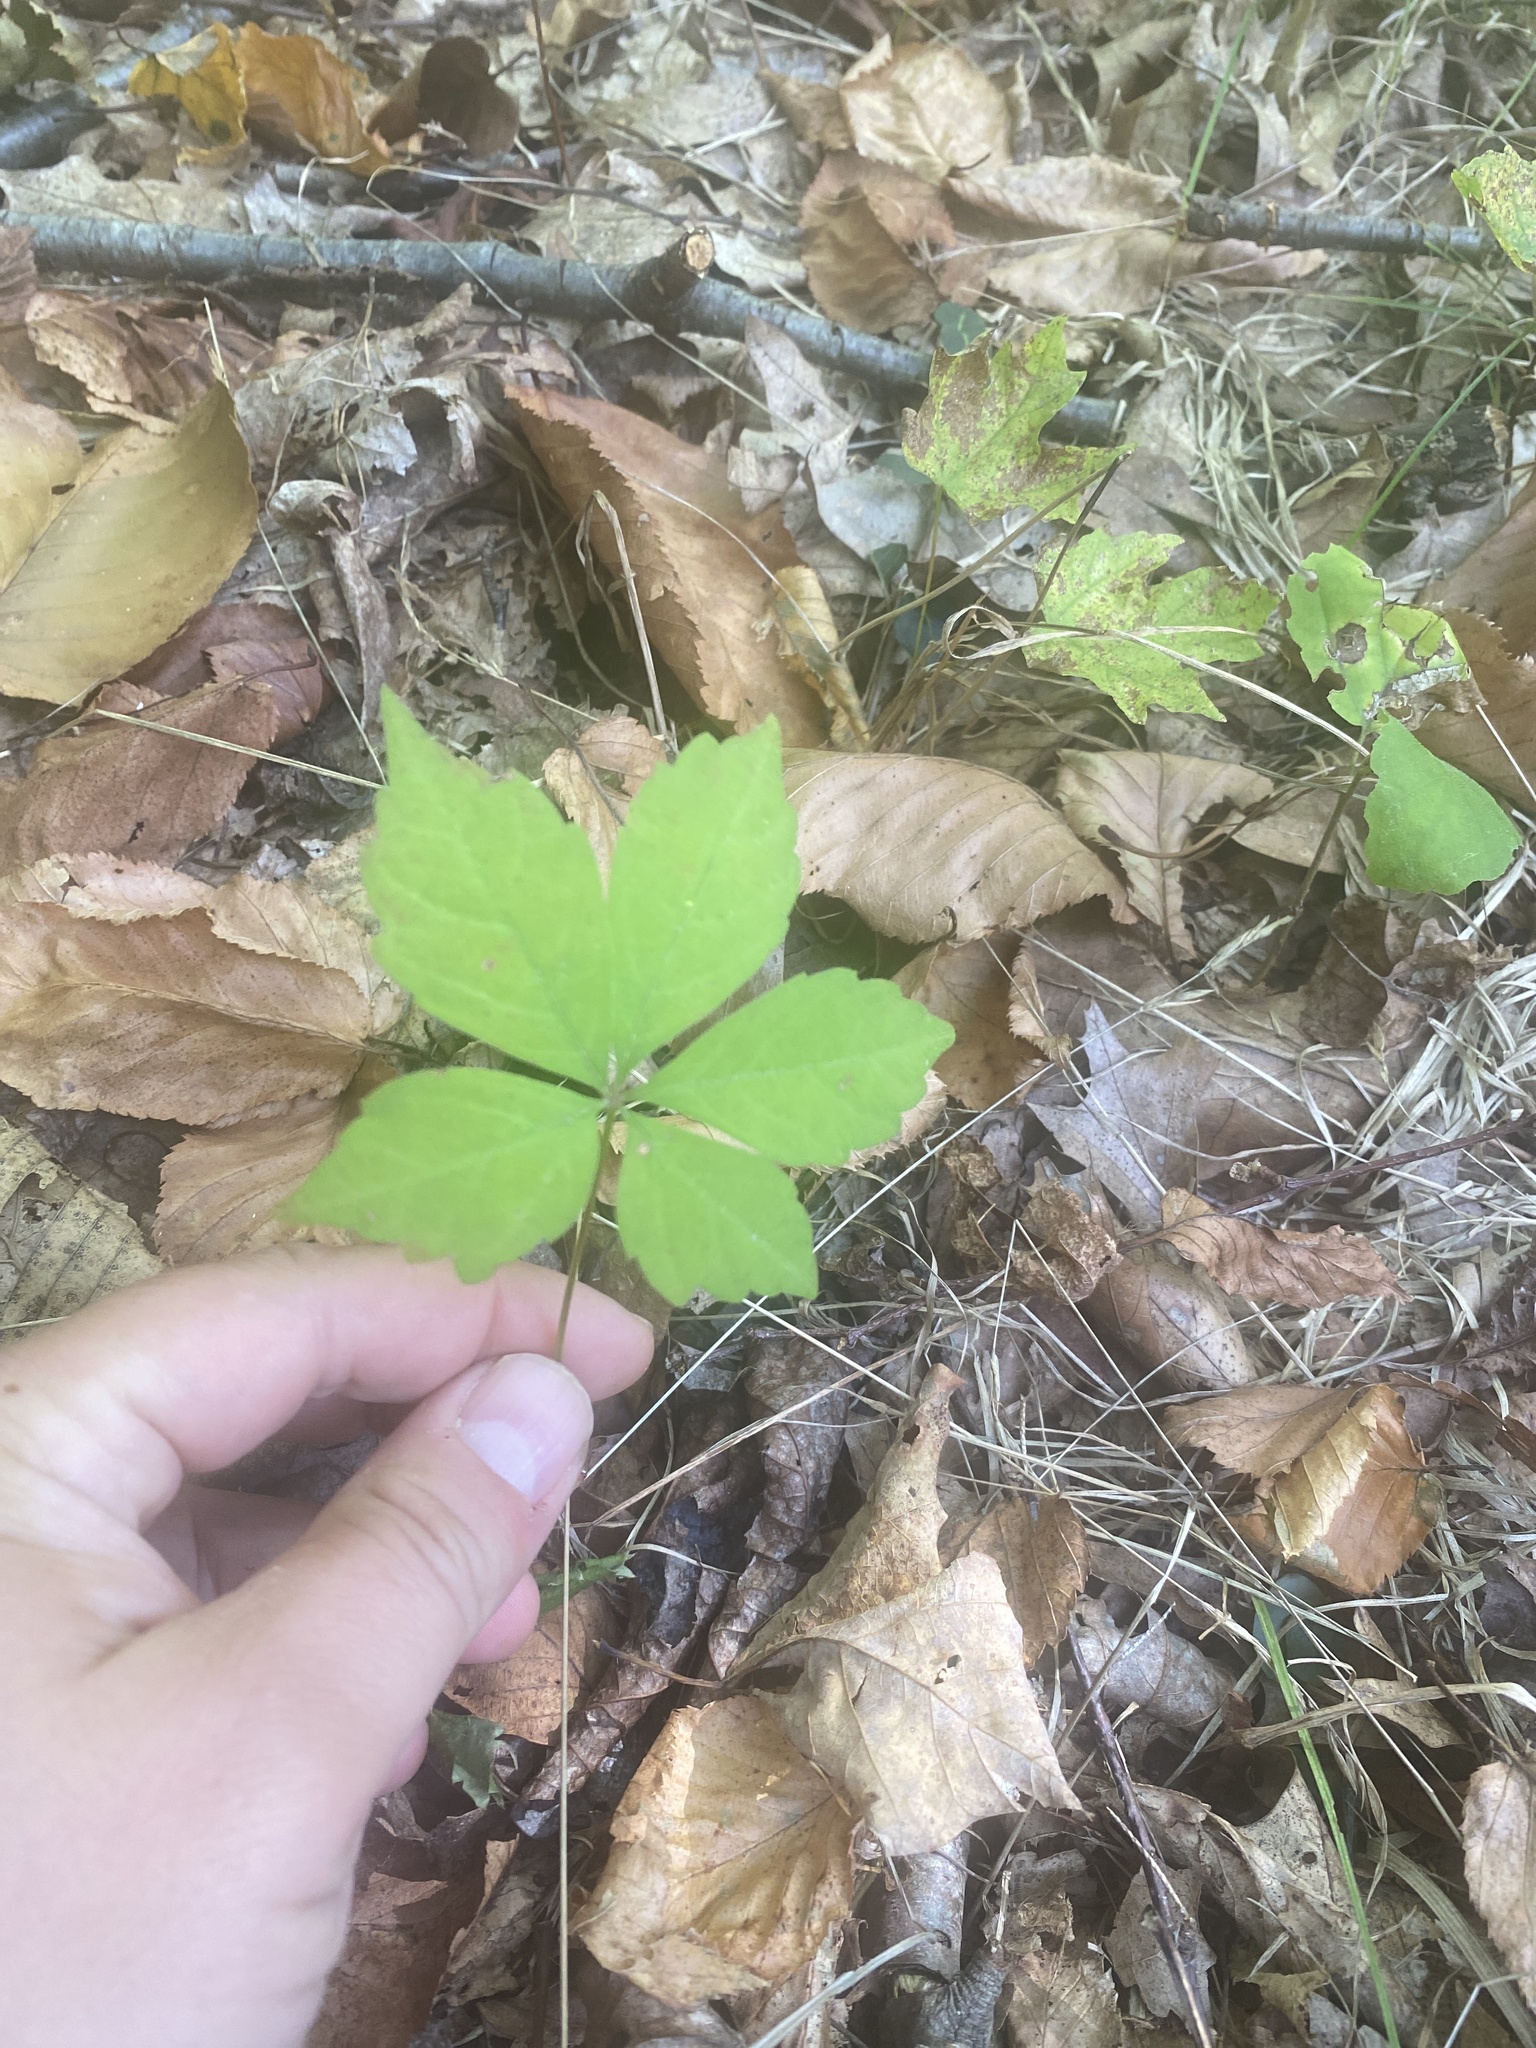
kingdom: Plantae
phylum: Tracheophyta
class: Magnoliopsida
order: Vitales
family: Vitaceae
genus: Parthenocissus
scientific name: Parthenocissus quinquefolia
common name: Virginia-creeper
